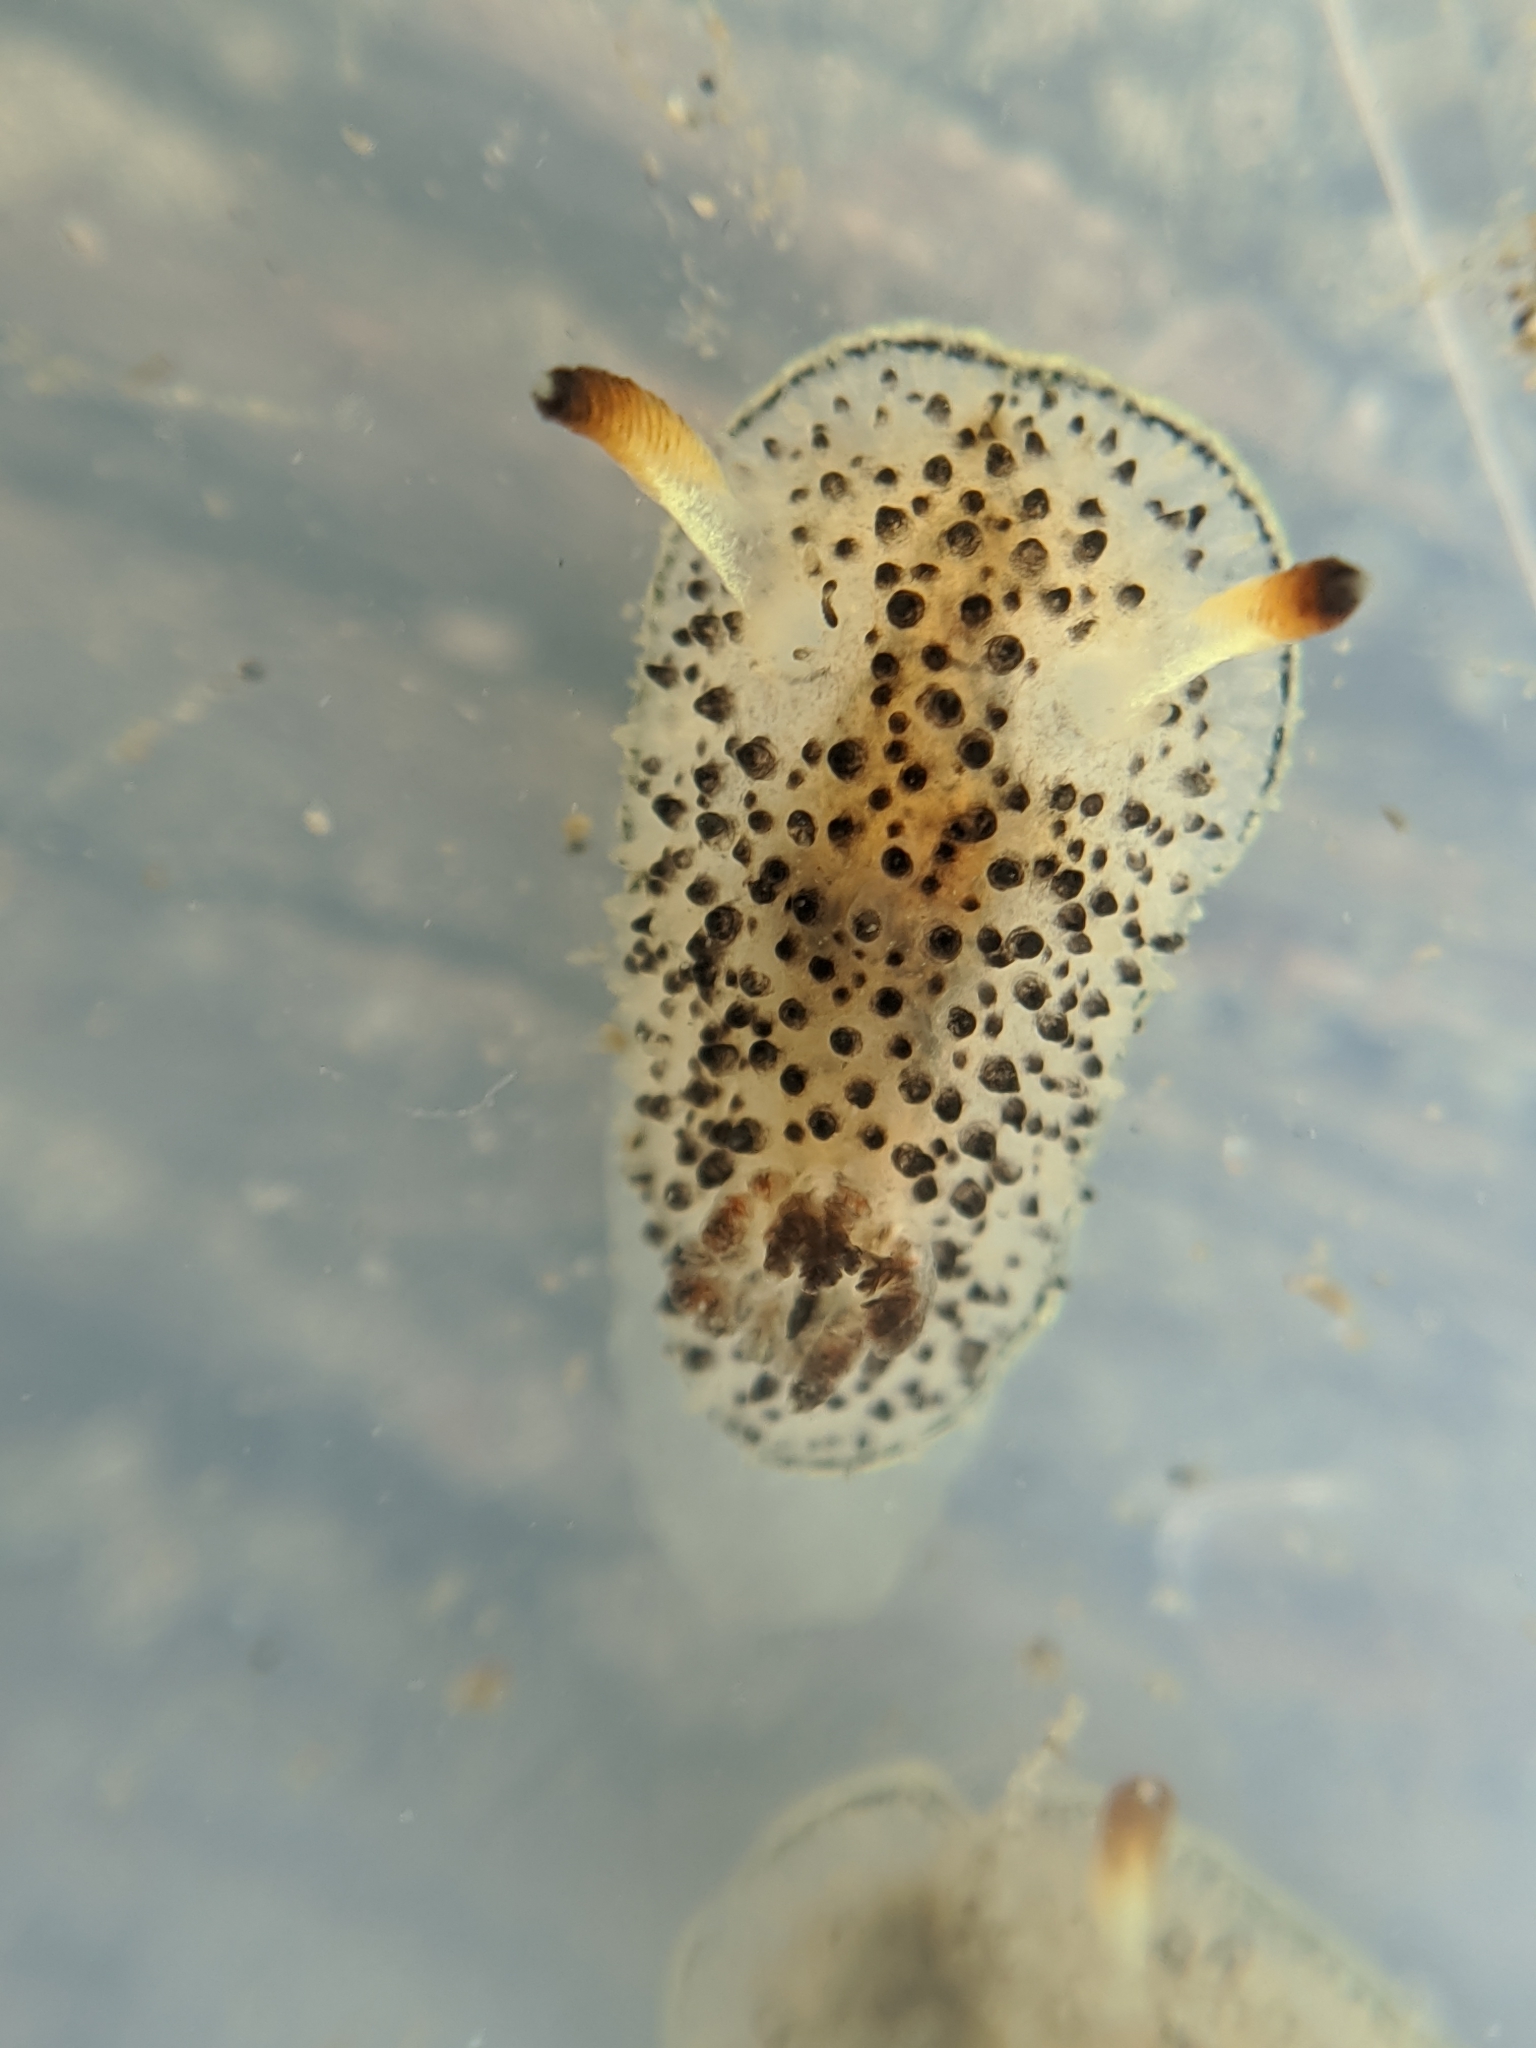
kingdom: Animalia
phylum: Mollusca
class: Gastropoda
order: Nudibranchia
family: Onchidorididae
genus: Acanthodoris
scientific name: Acanthodoris rhodoceras
